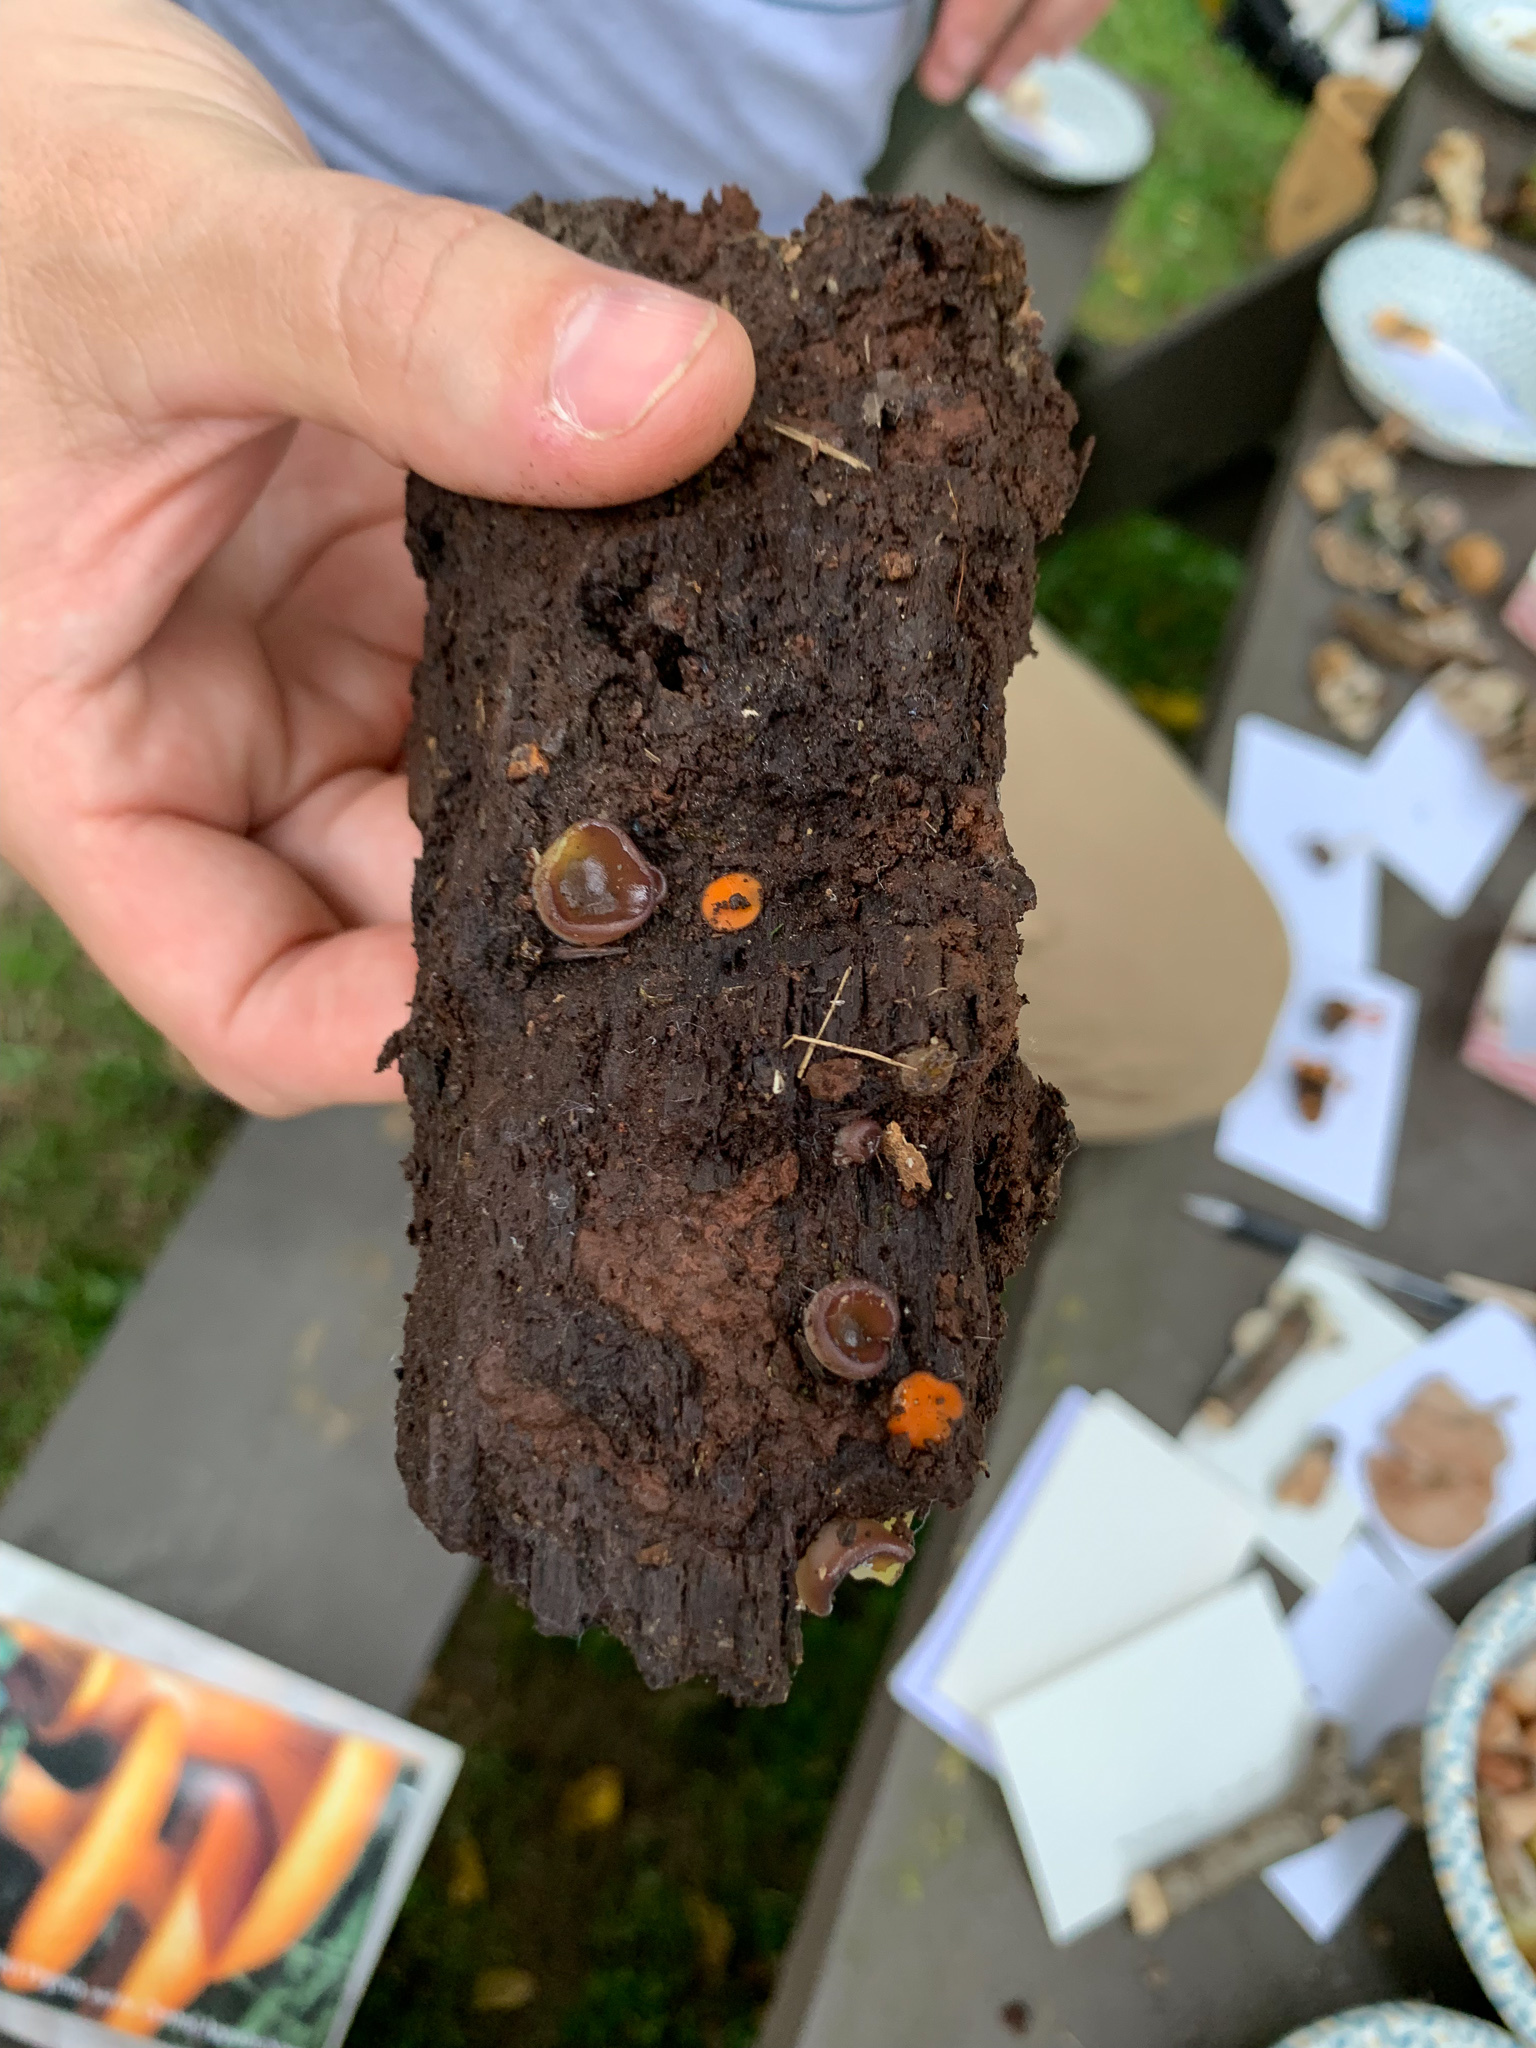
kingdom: Fungi
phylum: Ascomycota
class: Leotiomycetes
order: Helotiales
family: Gelatinodiscaceae
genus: Ascocoryne
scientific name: Ascocoryne sarcoides
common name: Purple jellydisc
